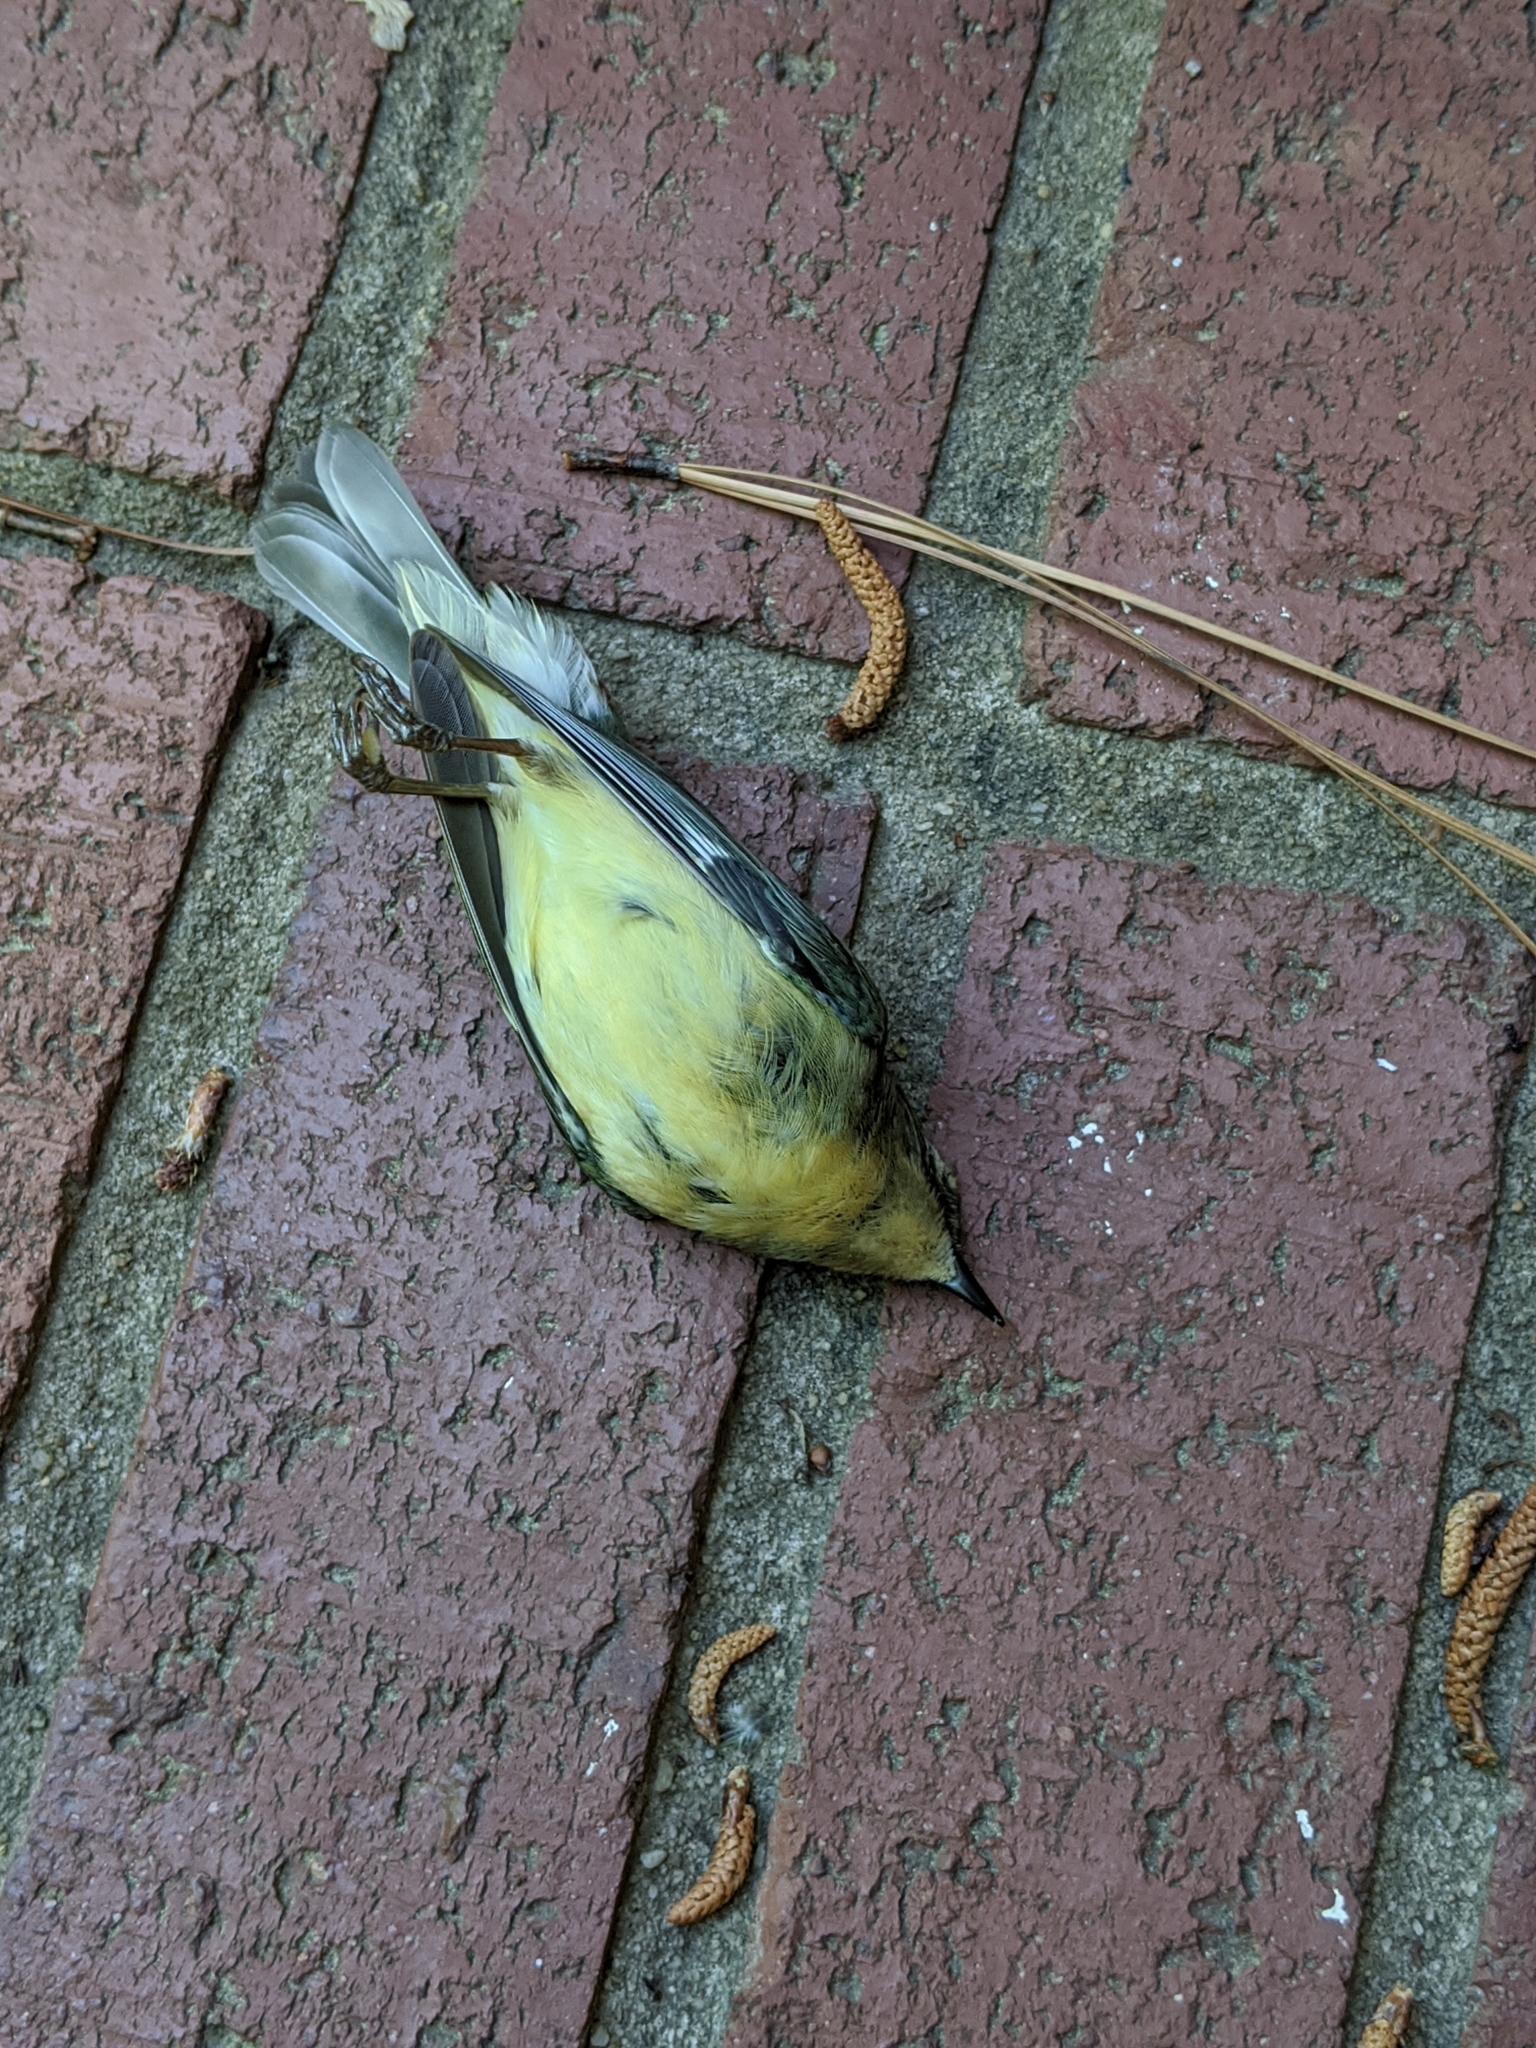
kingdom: Animalia
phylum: Chordata
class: Aves
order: Passeriformes
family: Parulidae
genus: Setophaga
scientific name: Setophaga caerulescens
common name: Black-throated blue warbler
